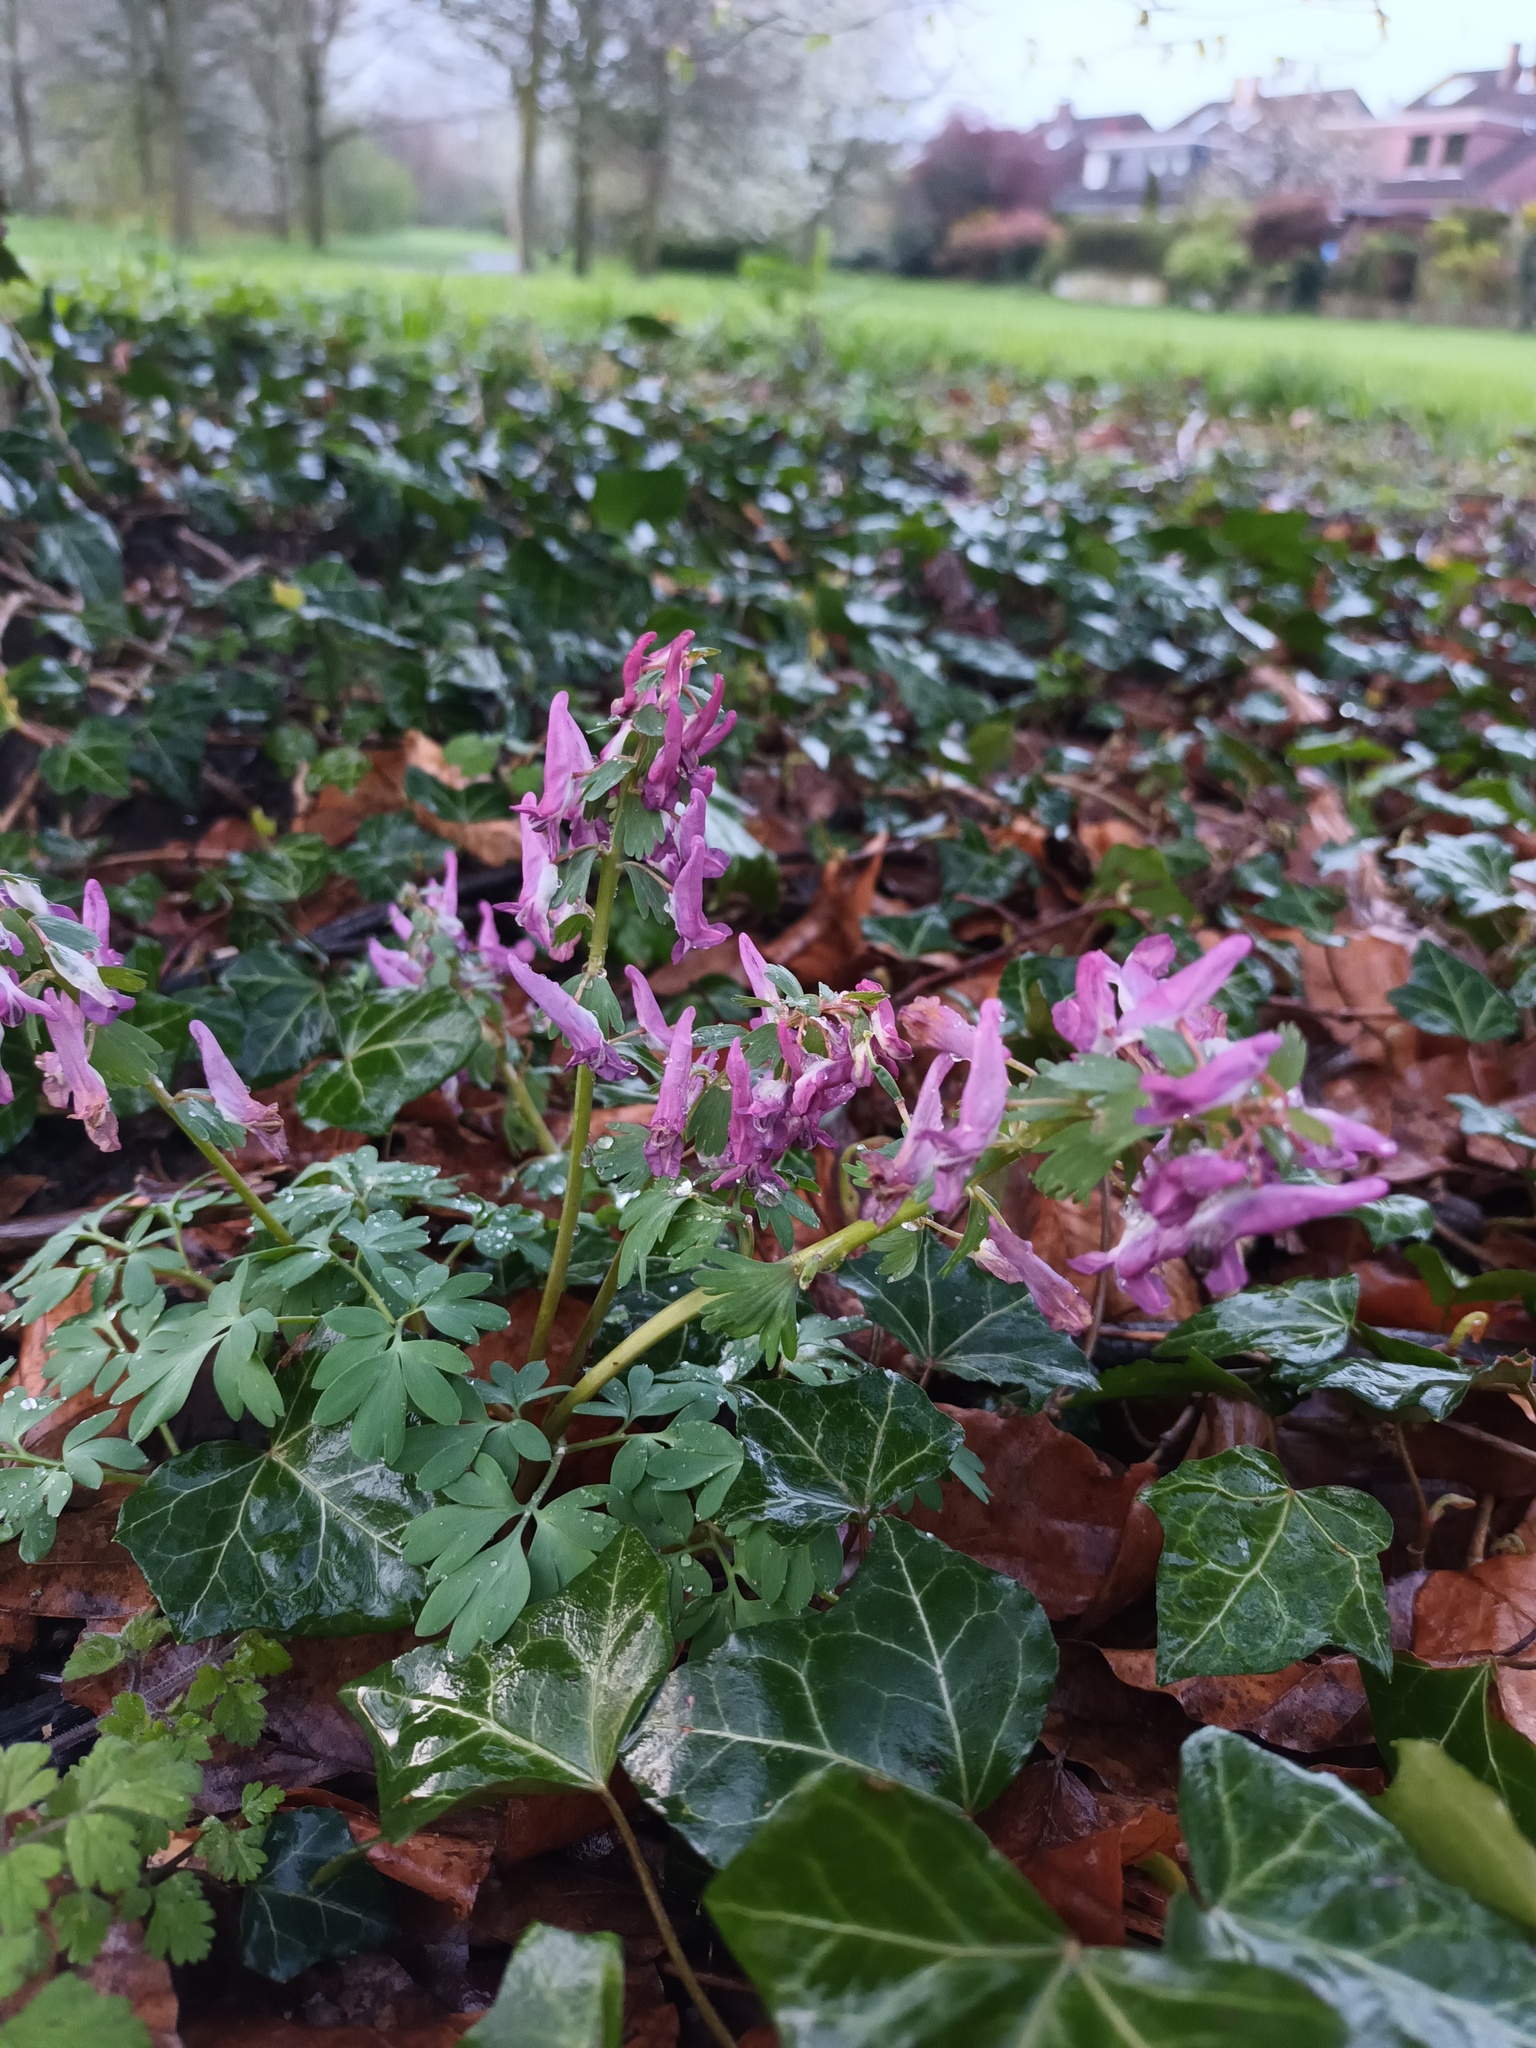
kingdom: Plantae
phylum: Tracheophyta
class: Magnoliopsida
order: Ranunculales
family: Papaveraceae
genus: Corydalis
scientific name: Corydalis solida
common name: Bird-in-a-bush
